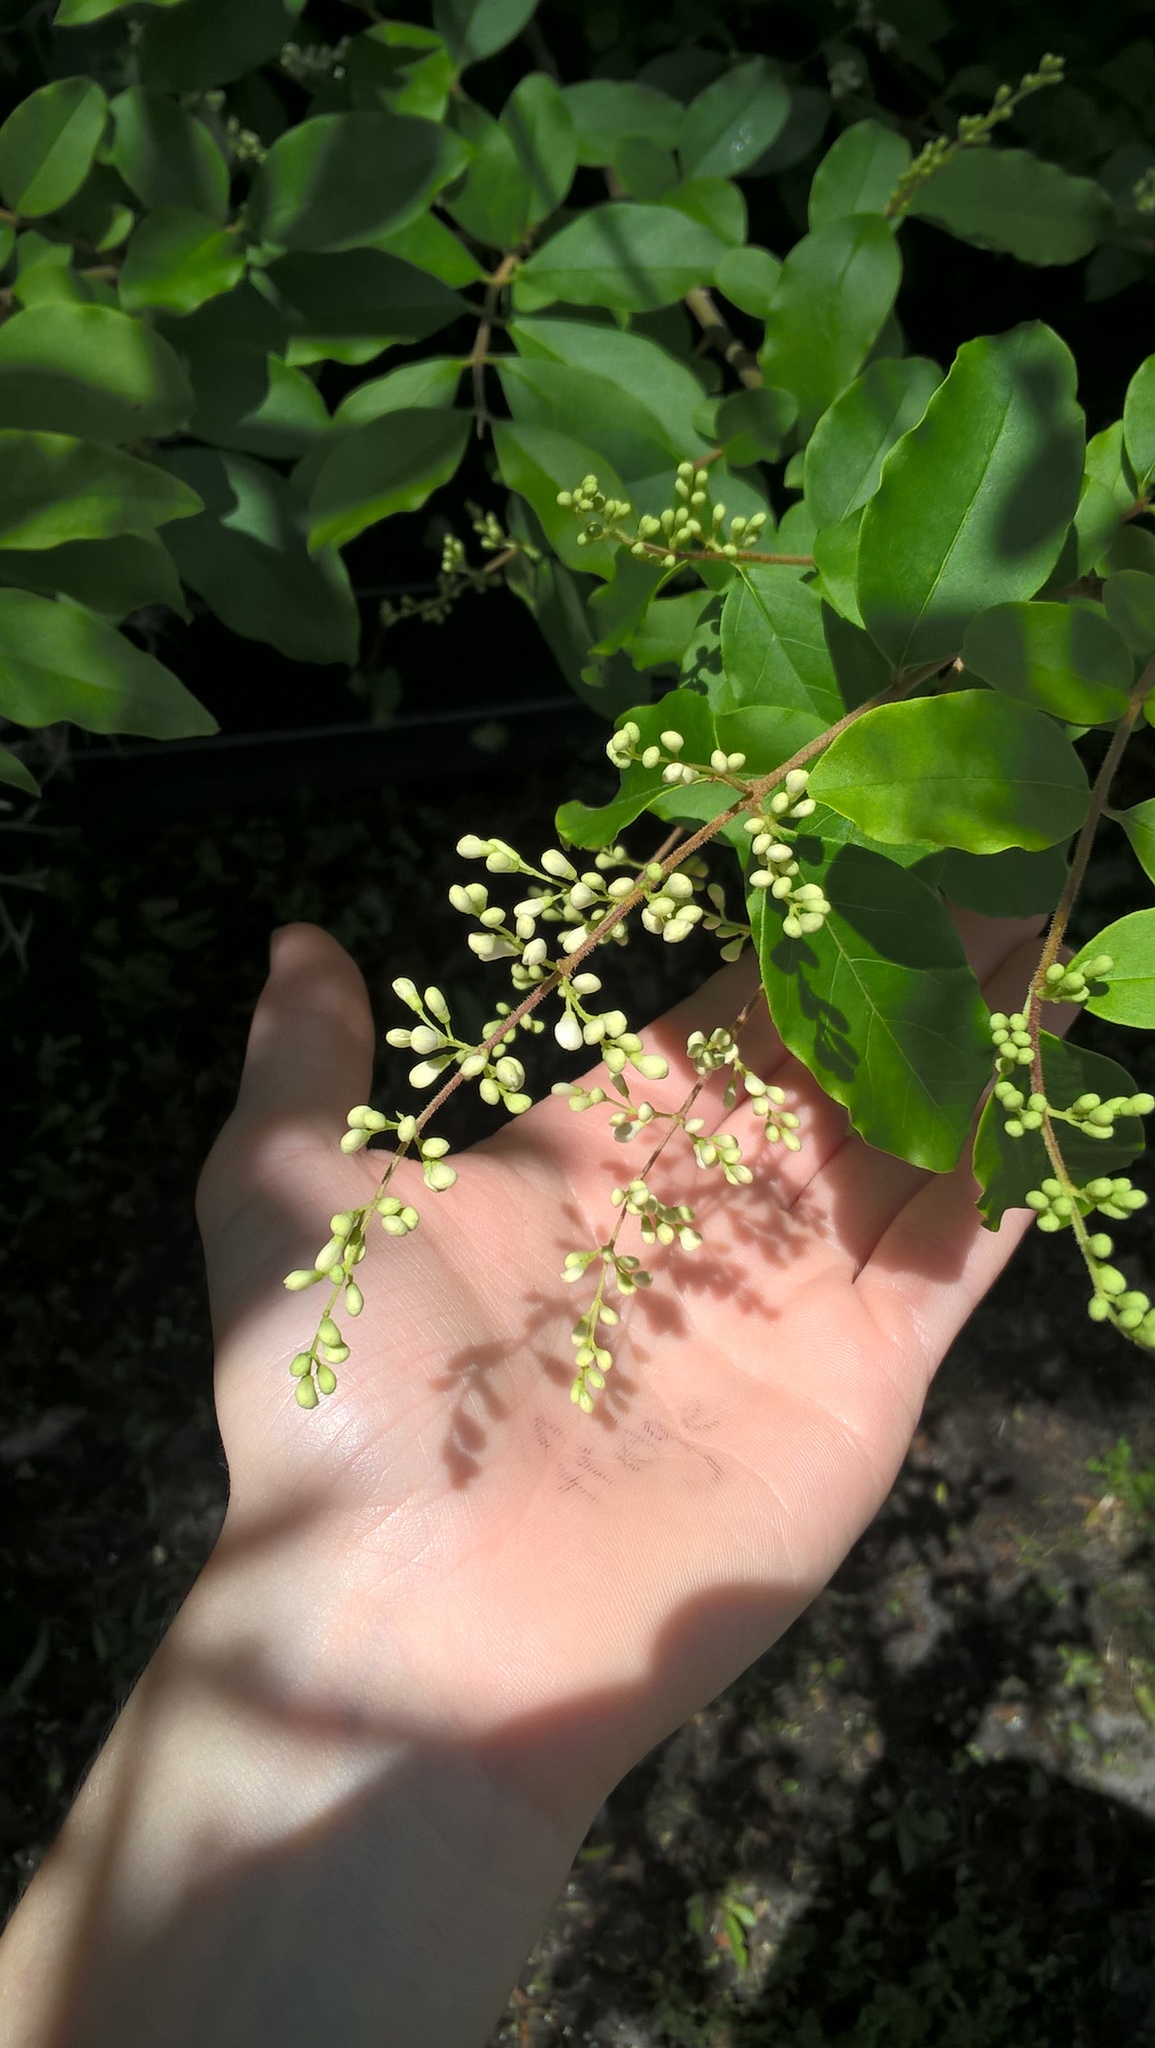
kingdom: Plantae
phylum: Tracheophyta
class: Magnoliopsida
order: Lamiales
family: Oleaceae
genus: Ligustrum
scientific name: Ligustrum sinense
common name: Chinese privet
